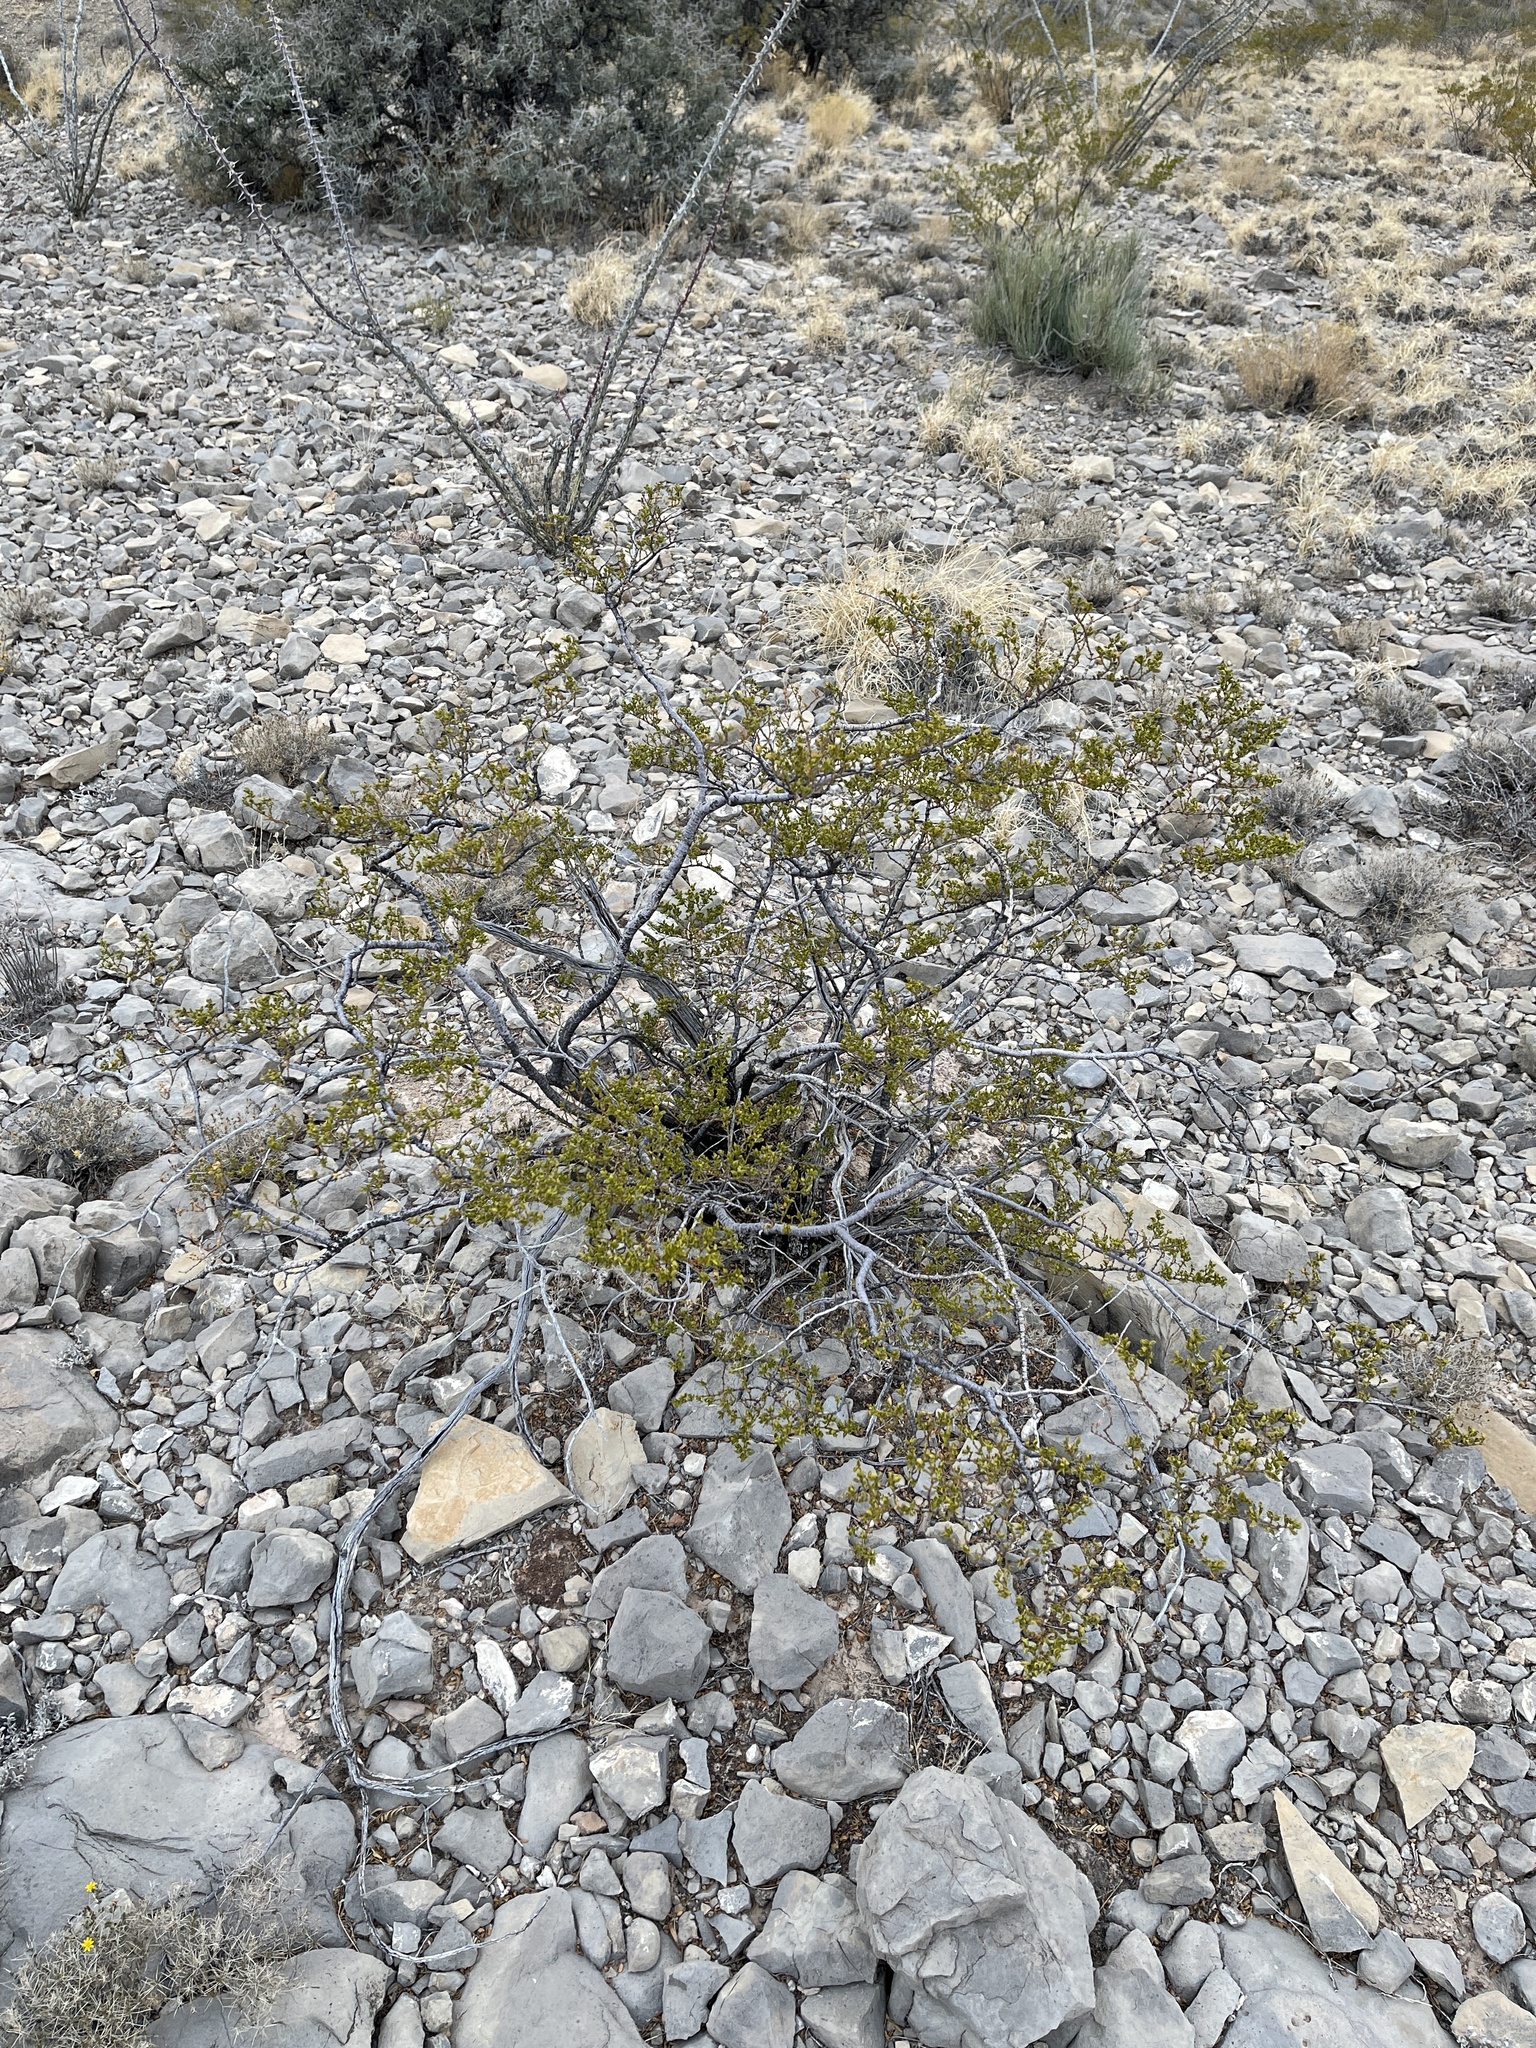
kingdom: Plantae
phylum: Tracheophyta
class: Magnoliopsida
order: Zygophyllales
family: Zygophyllaceae
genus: Larrea
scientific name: Larrea tridentata
